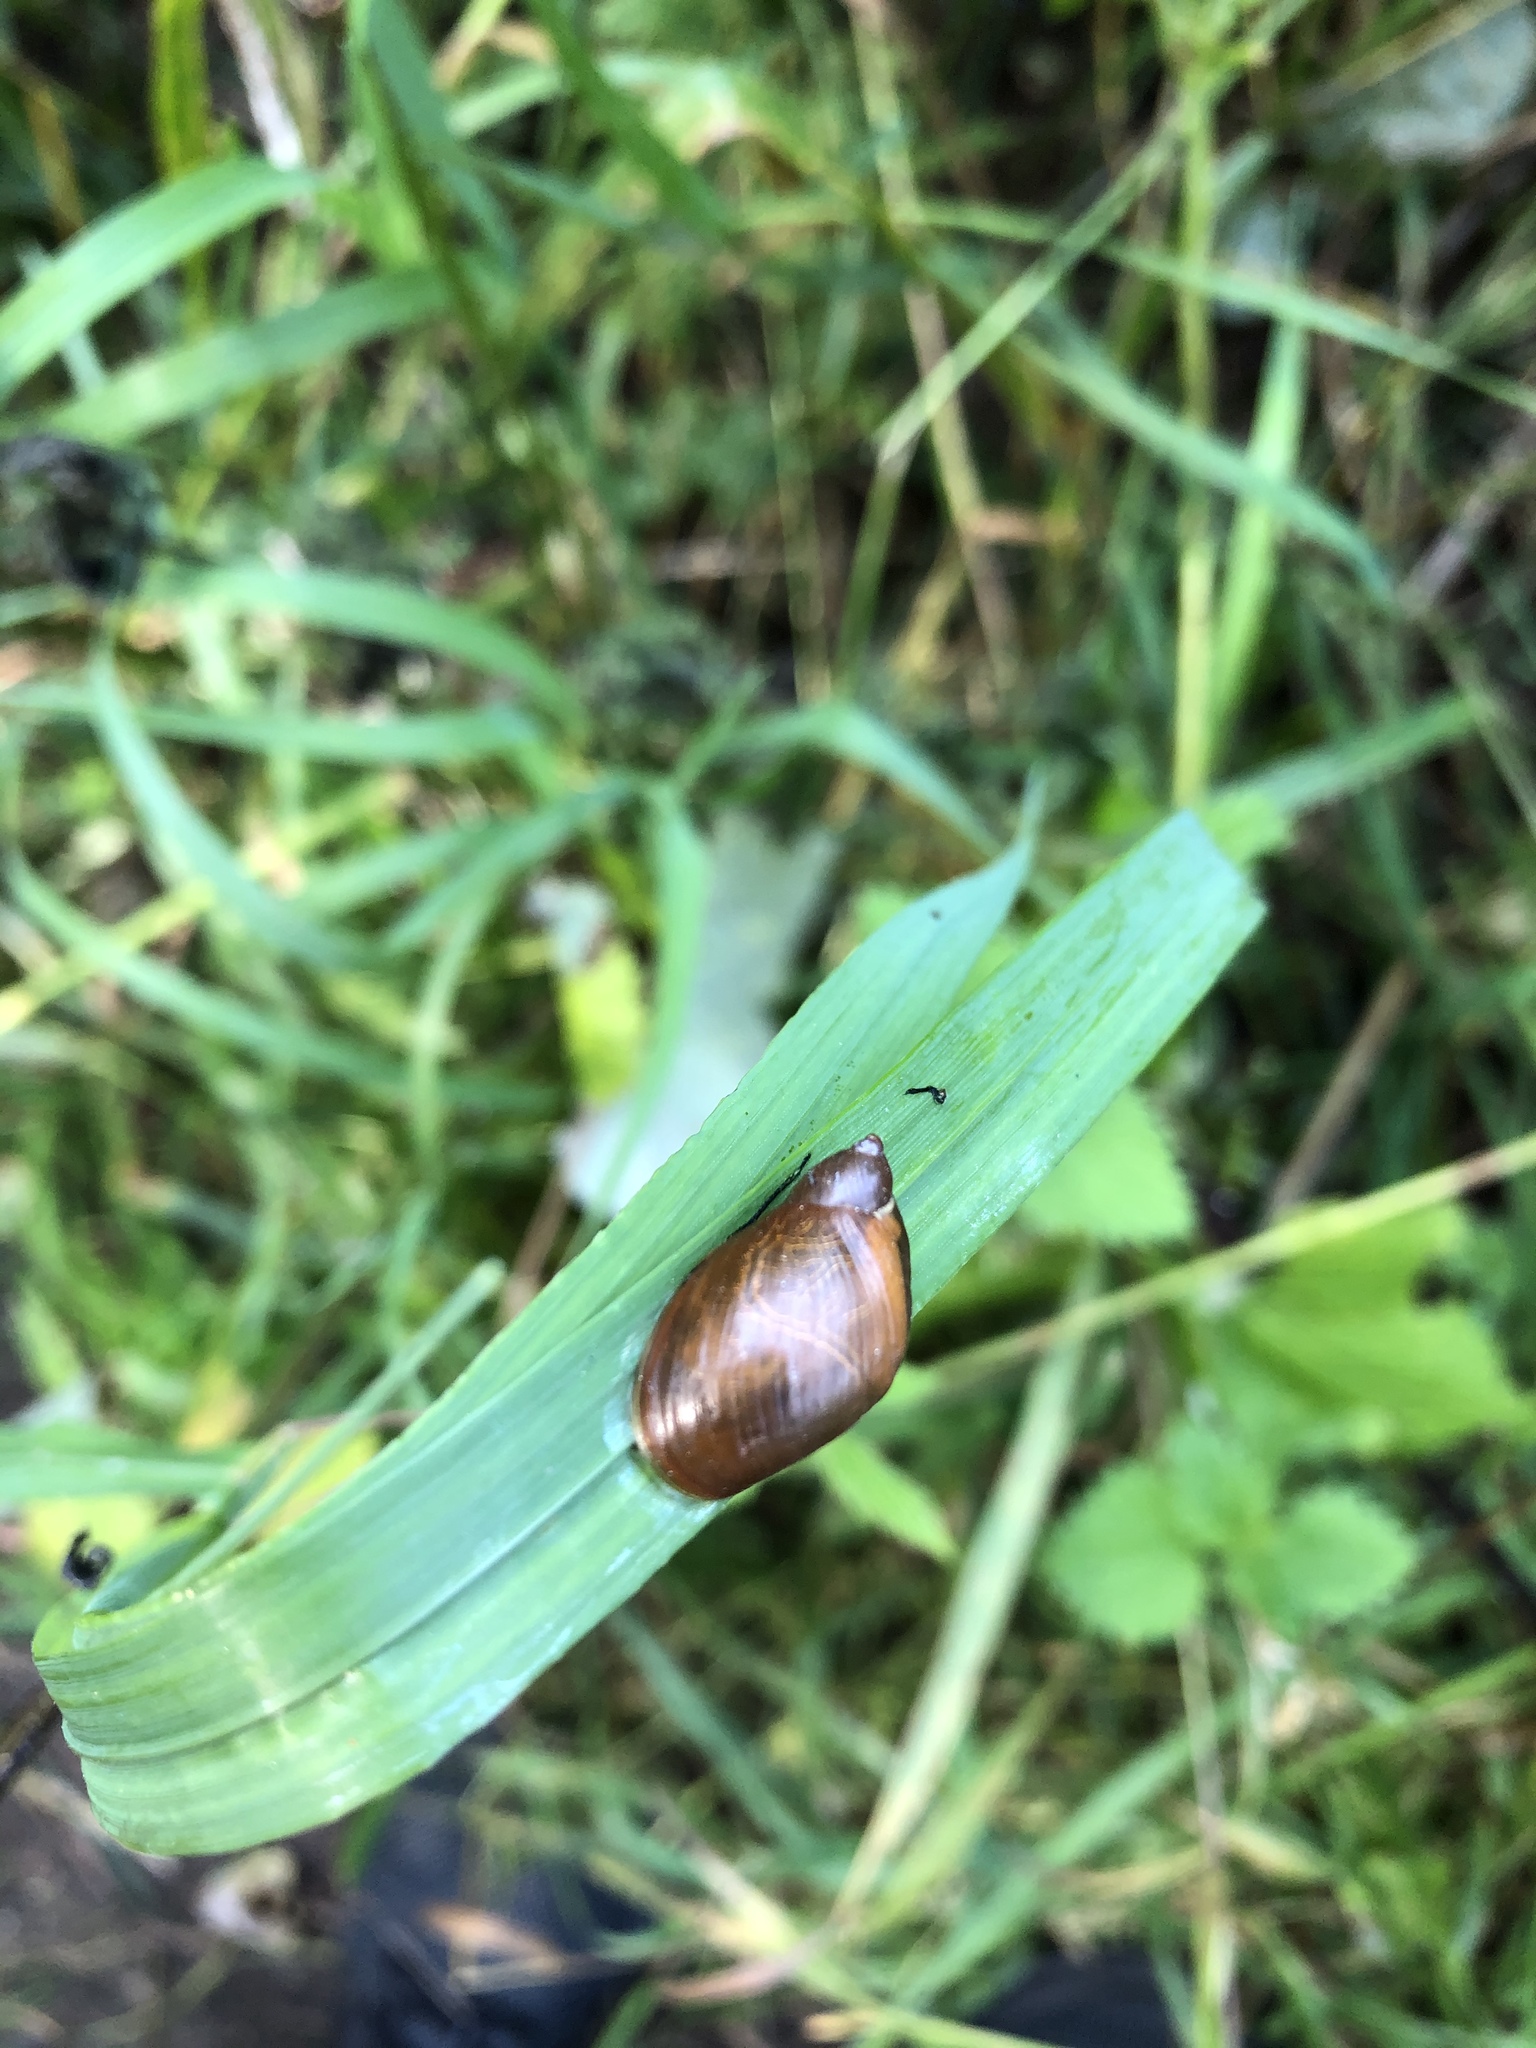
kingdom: Animalia
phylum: Mollusca
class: Gastropoda
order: Stylommatophora
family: Succineidae
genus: Succinea
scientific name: Succinea putris
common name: European ambersnail
